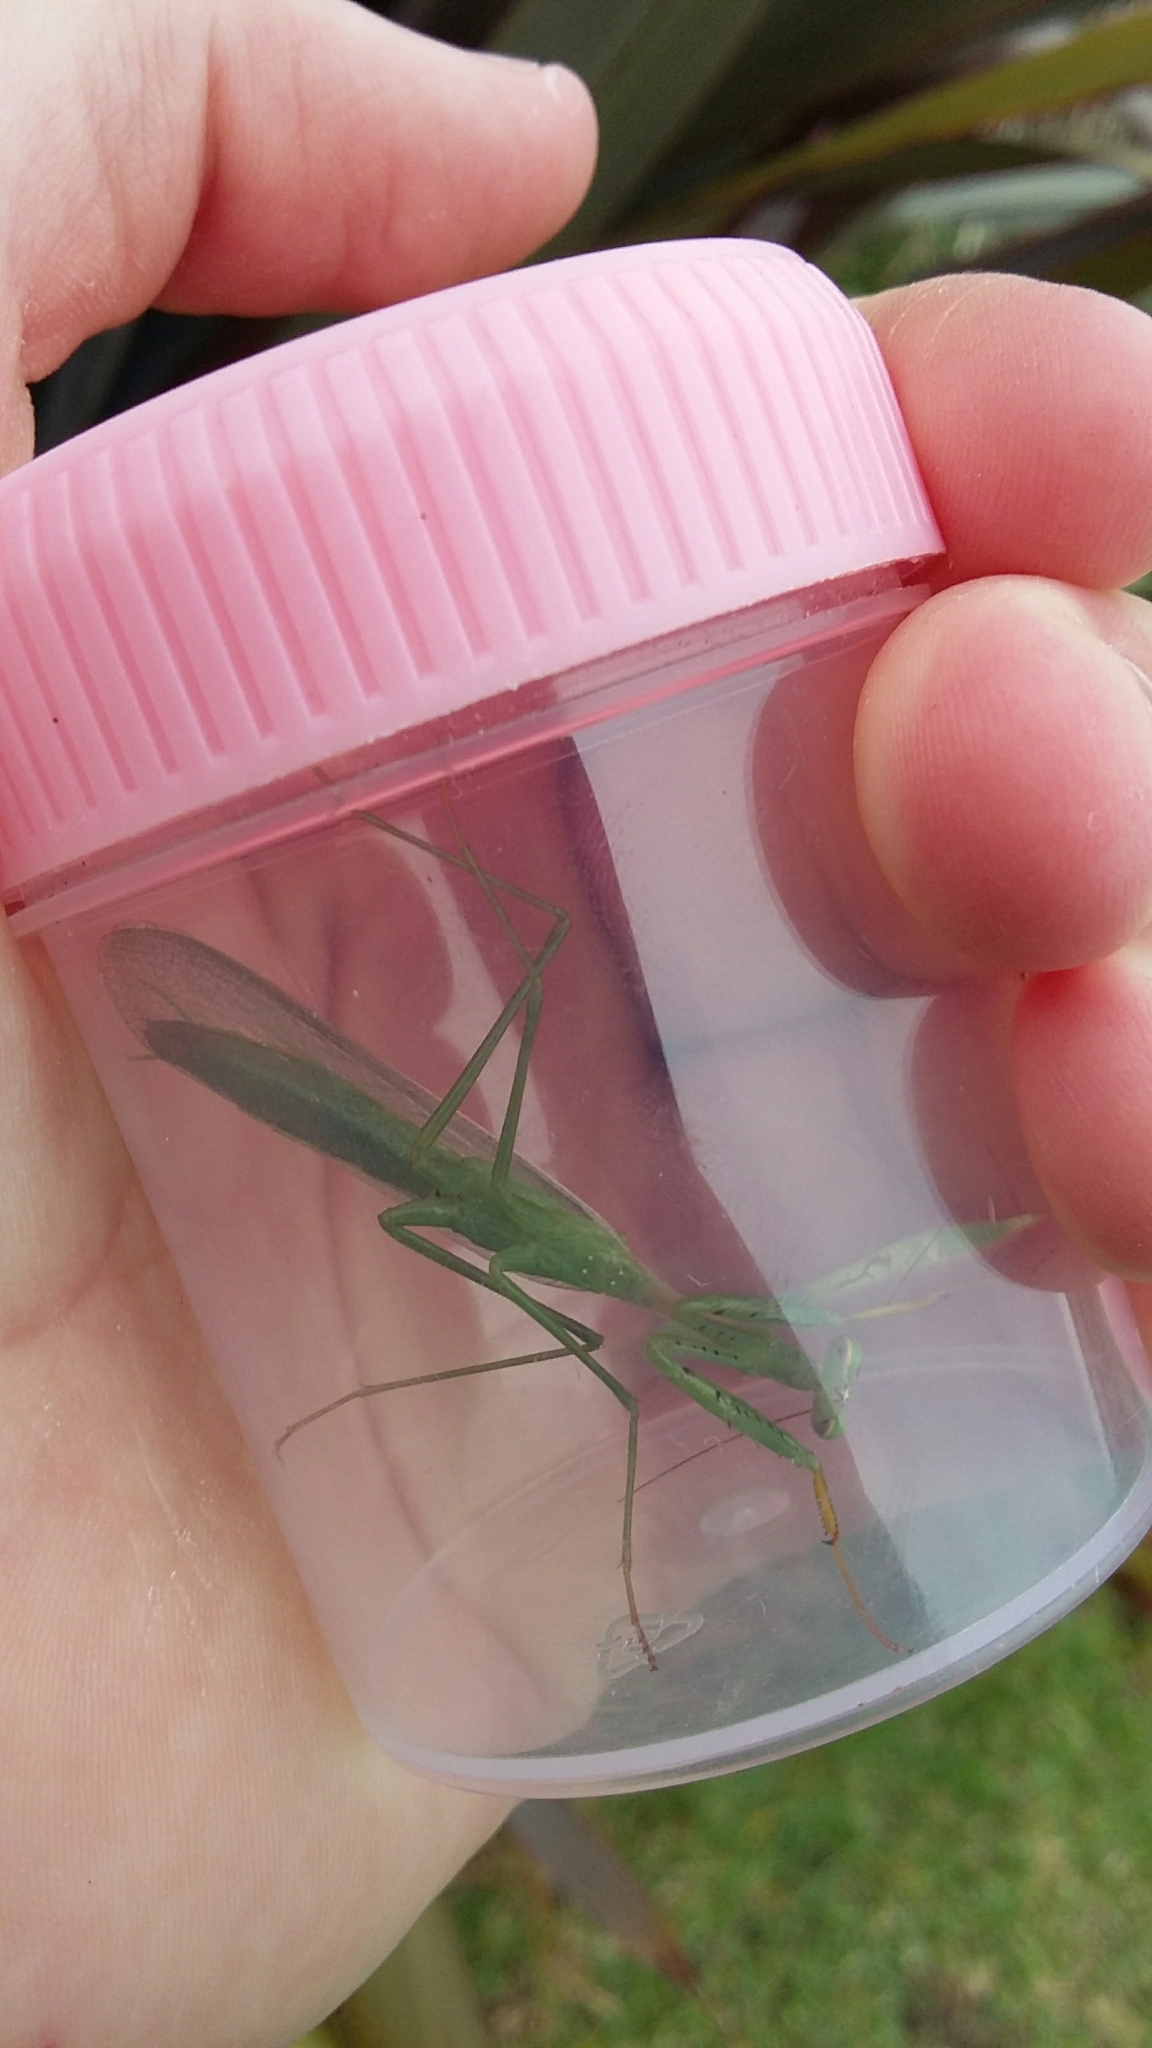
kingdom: Animalia
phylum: Arthropoda
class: Insecta
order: Mantodea
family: Miomantidae
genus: Miomantis
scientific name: Miomantis caffra
